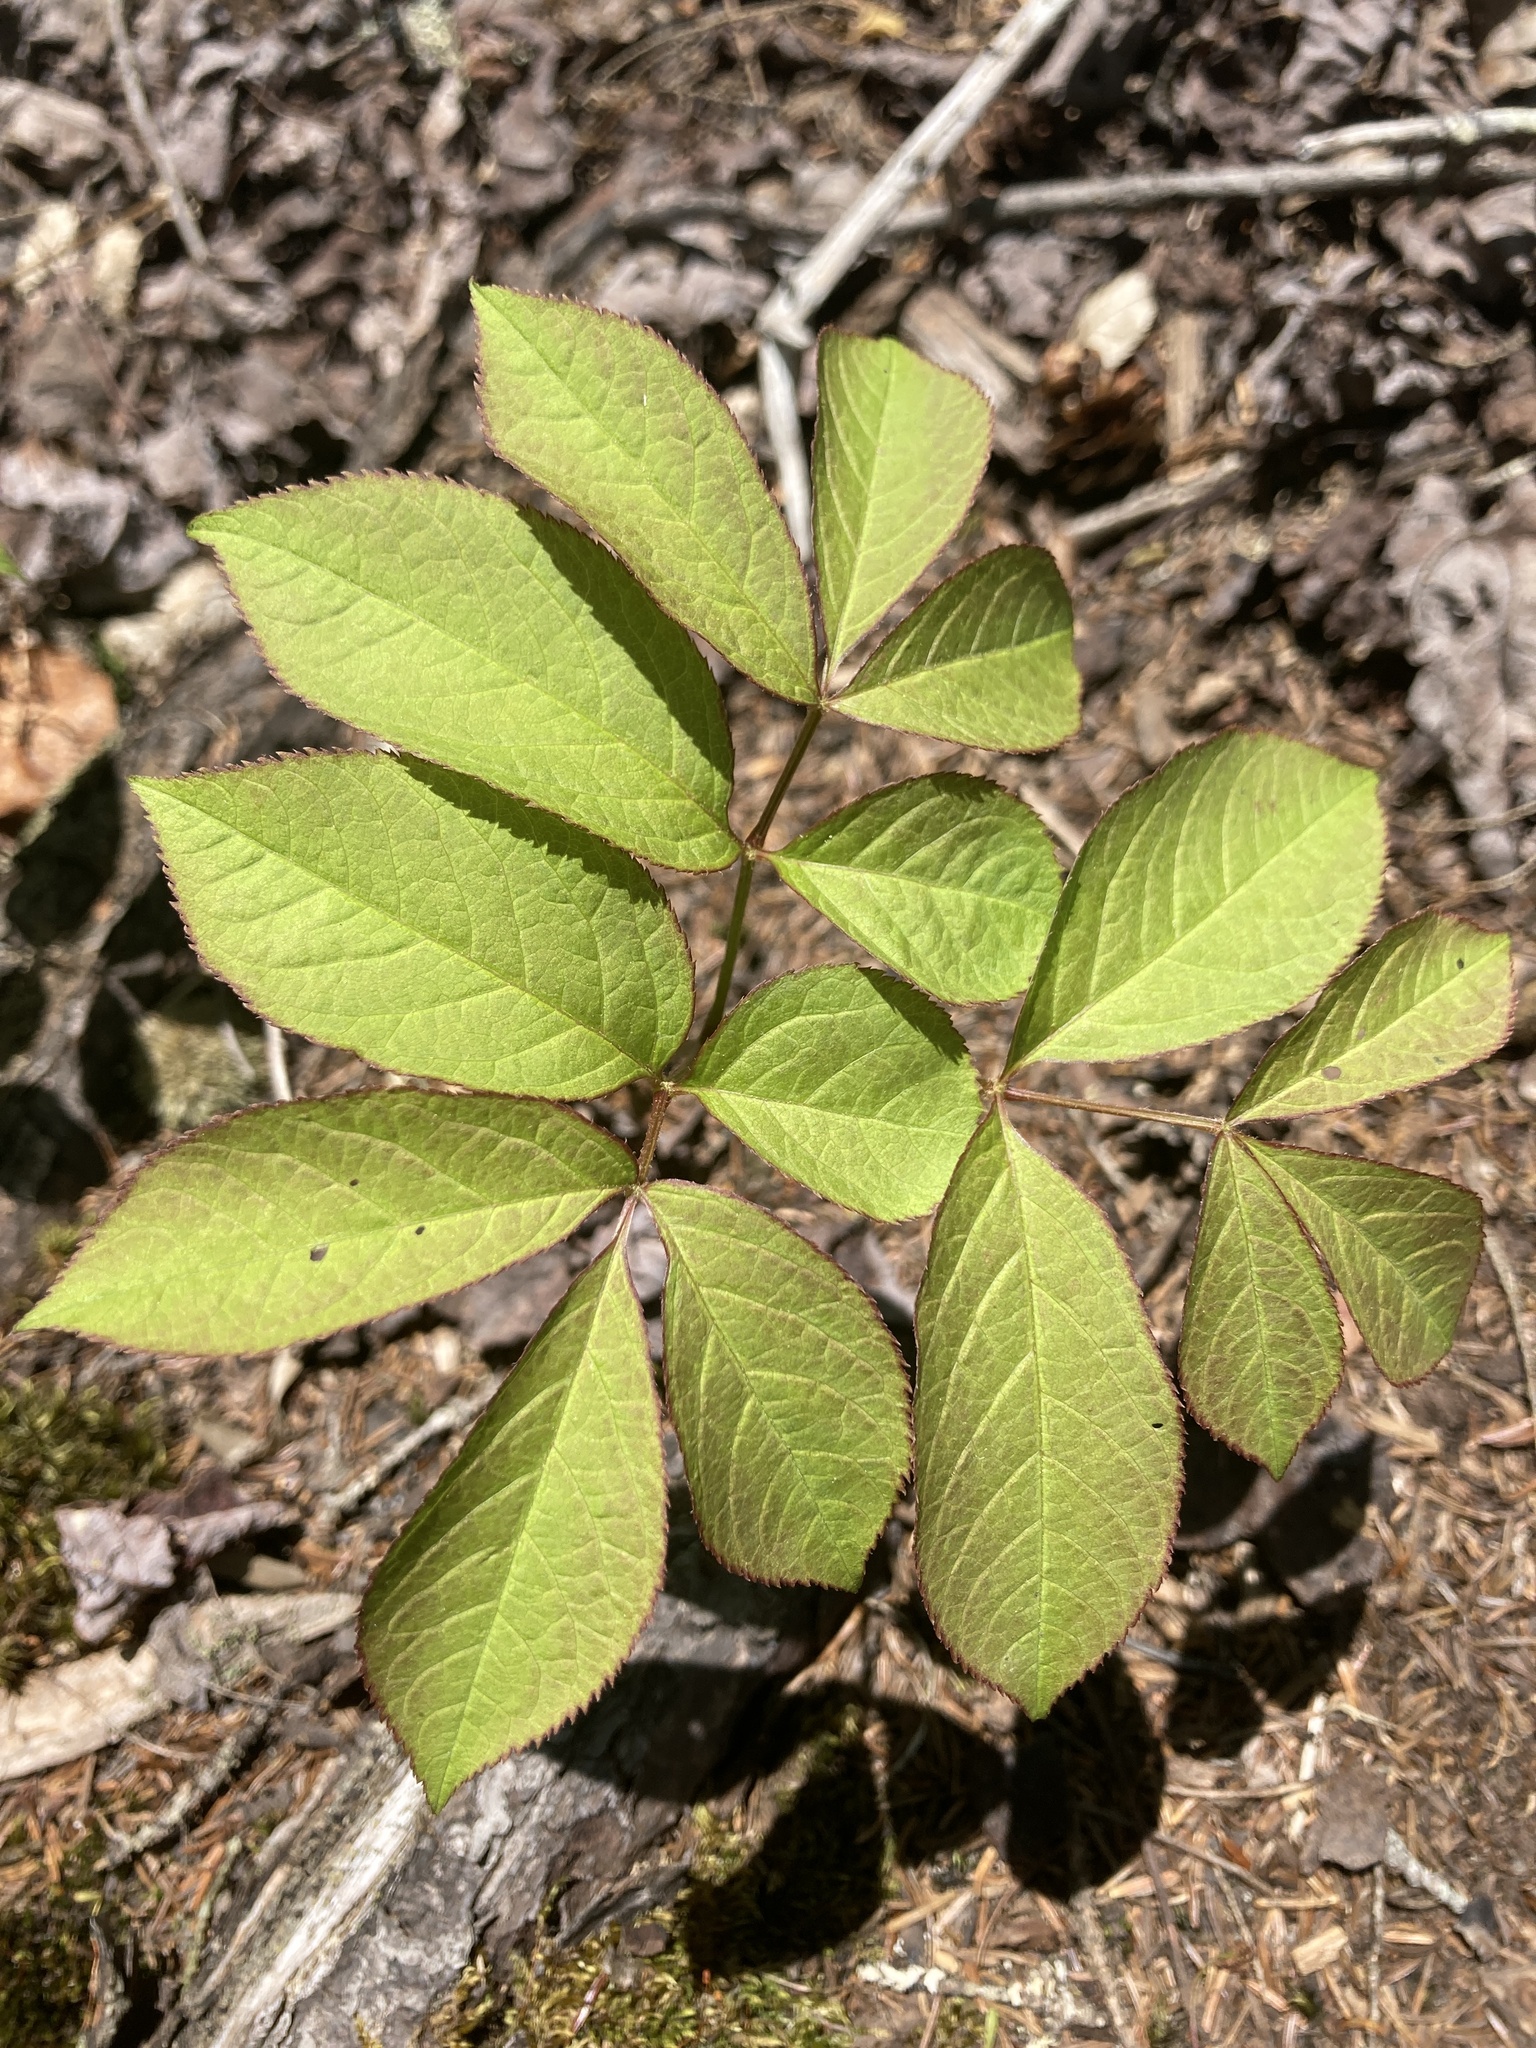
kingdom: Plantae
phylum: Tracheophyta
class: Magnoliopsida
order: Apiales
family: Araliaceae
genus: Aralia
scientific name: Aralia nudicaulis
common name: Wild sarsaparilla
